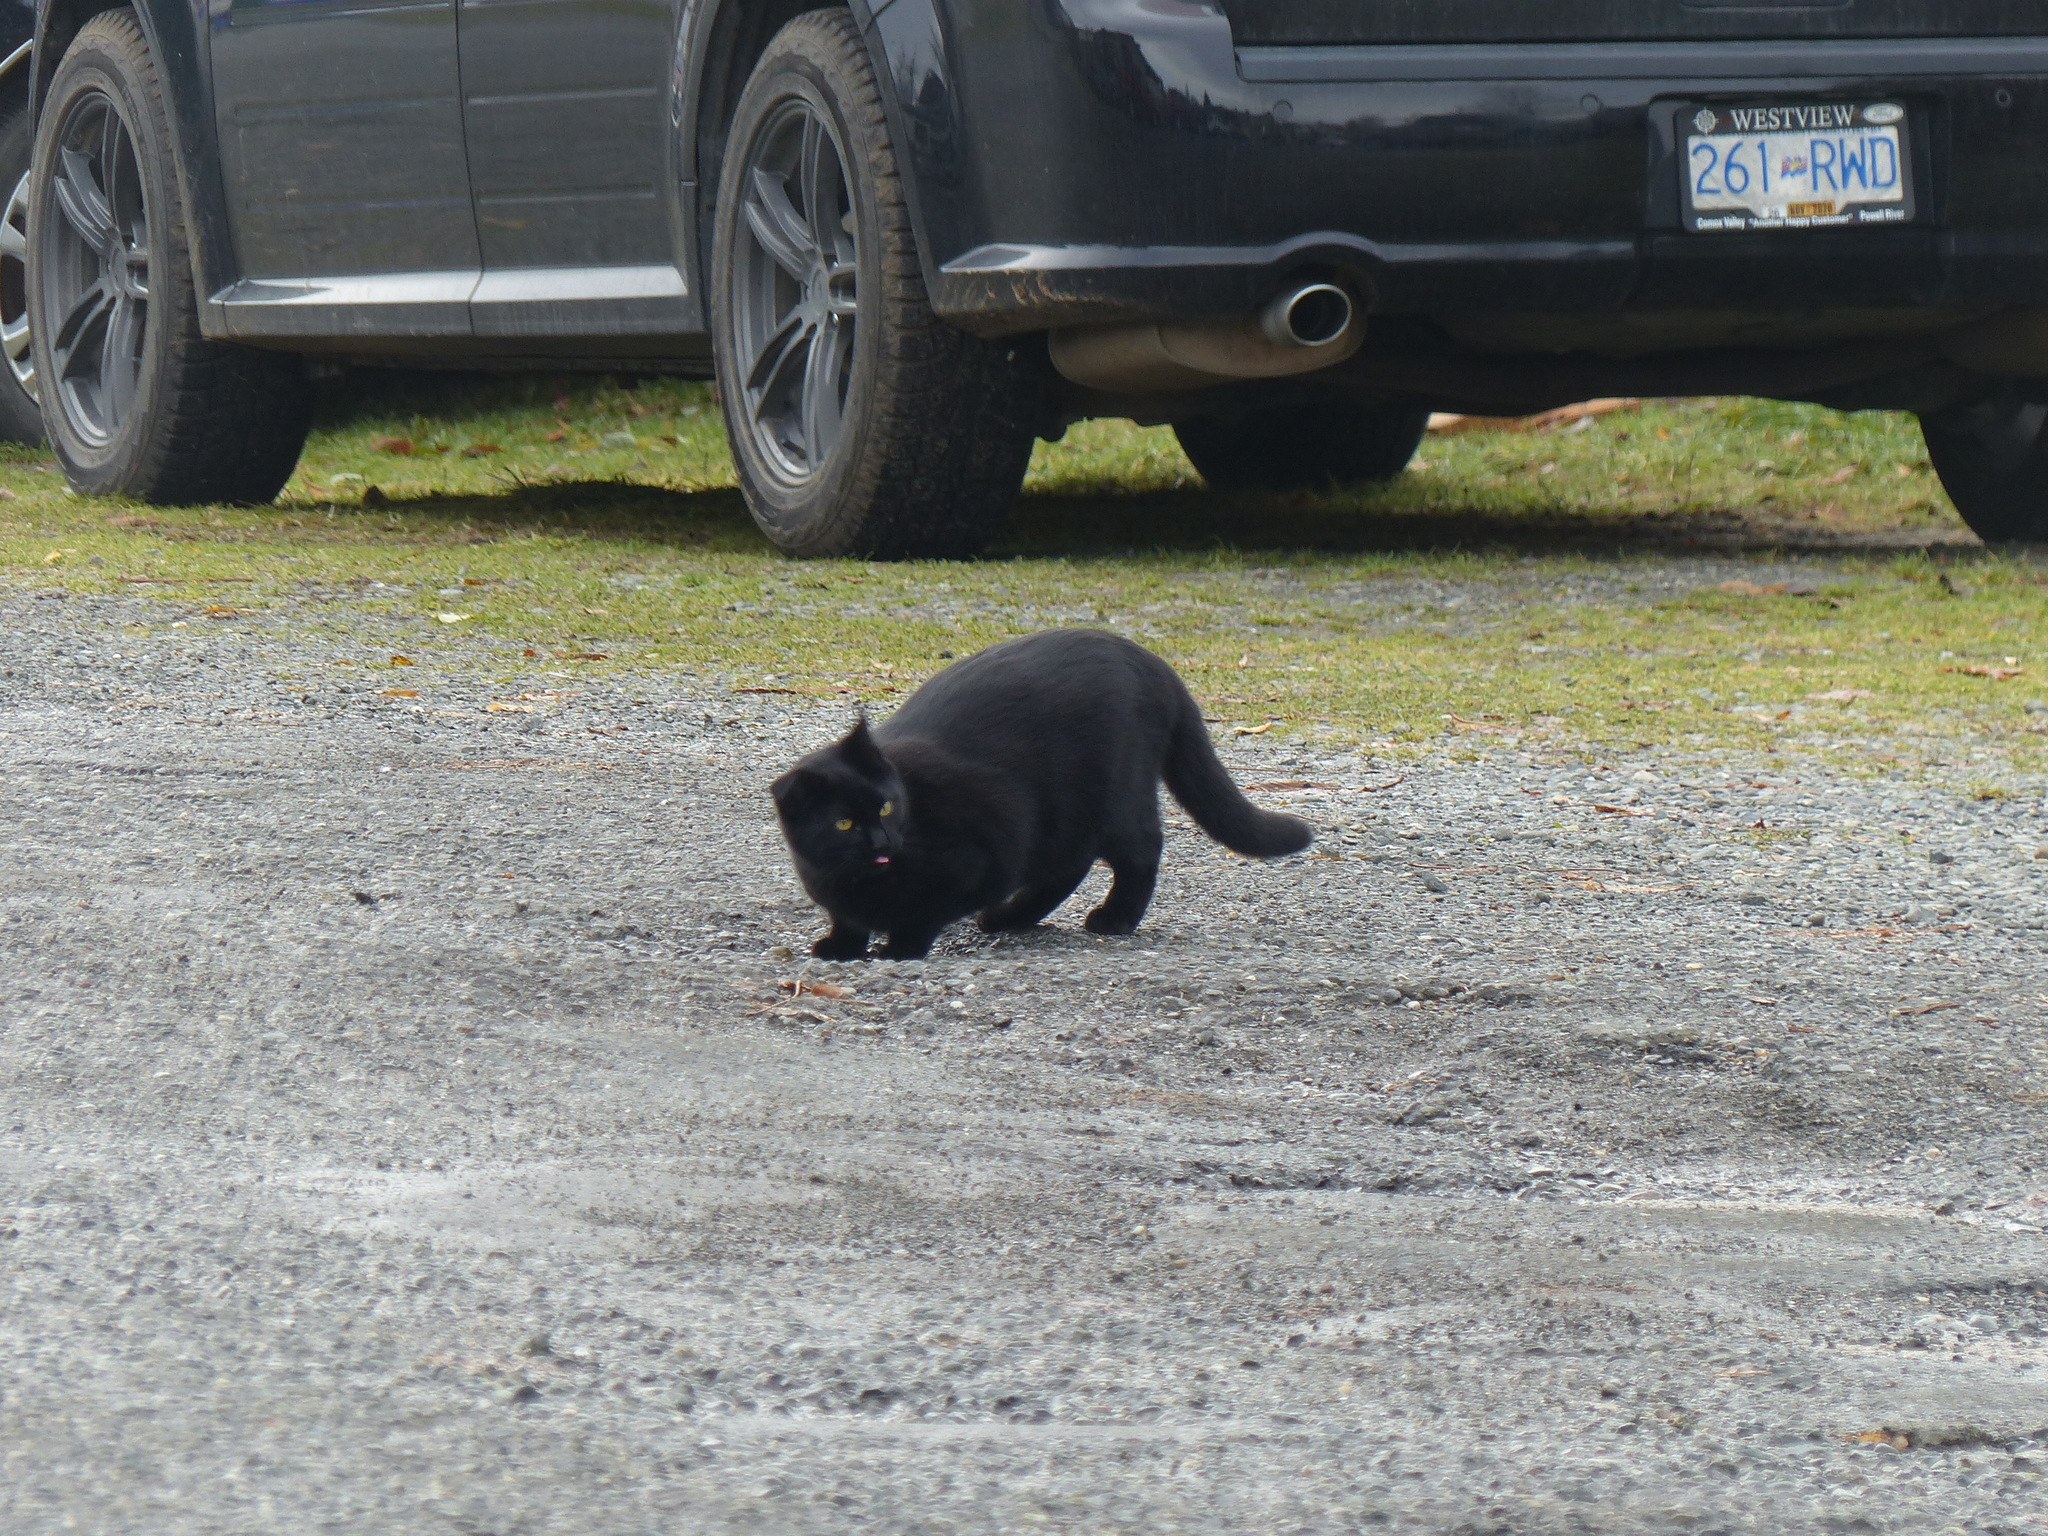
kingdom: Animalia
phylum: Chordata
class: Mammalia
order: Carnivora
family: Felidae
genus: Felis
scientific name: Felis catus
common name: Domestic cat
